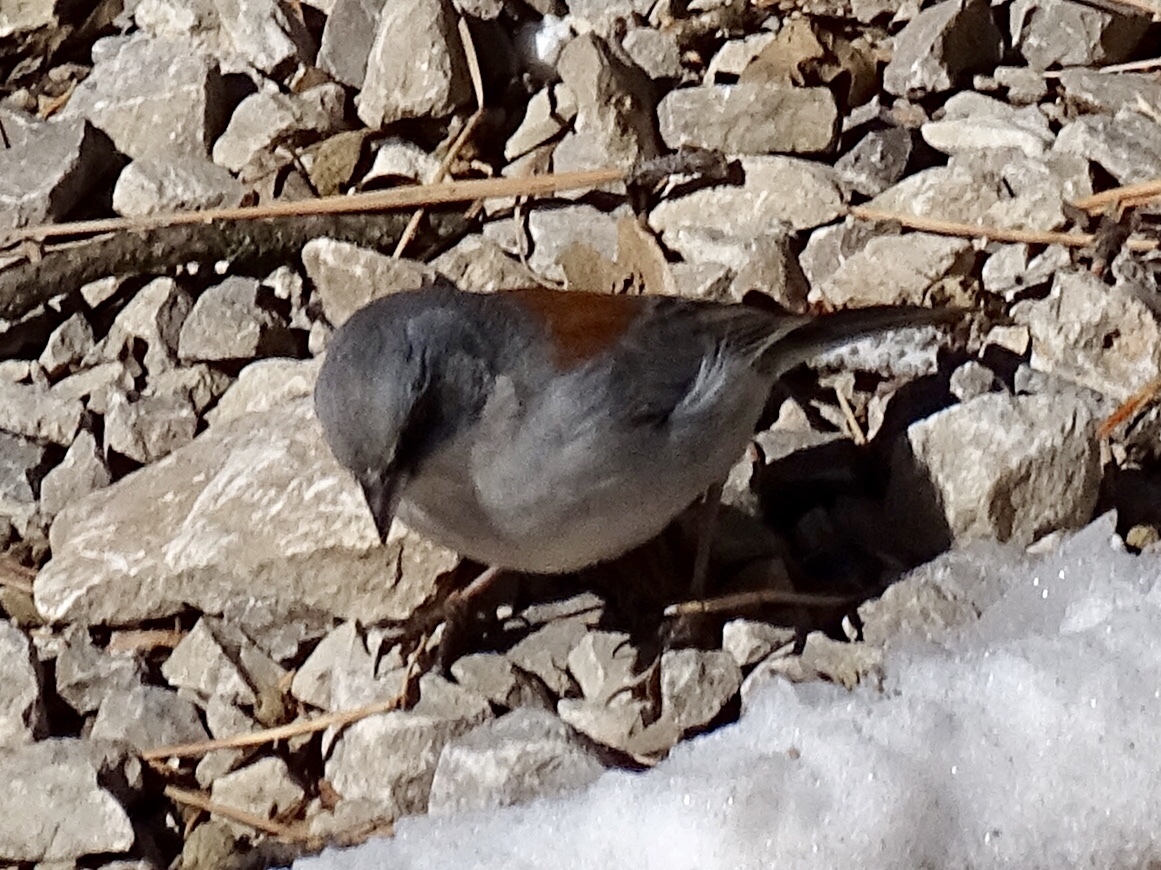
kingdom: Animalia
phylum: Chordata
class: Aves
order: Passeriformes
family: Passerellidae
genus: Junco
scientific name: Junco hyemalis
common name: Dark-eyed junco
